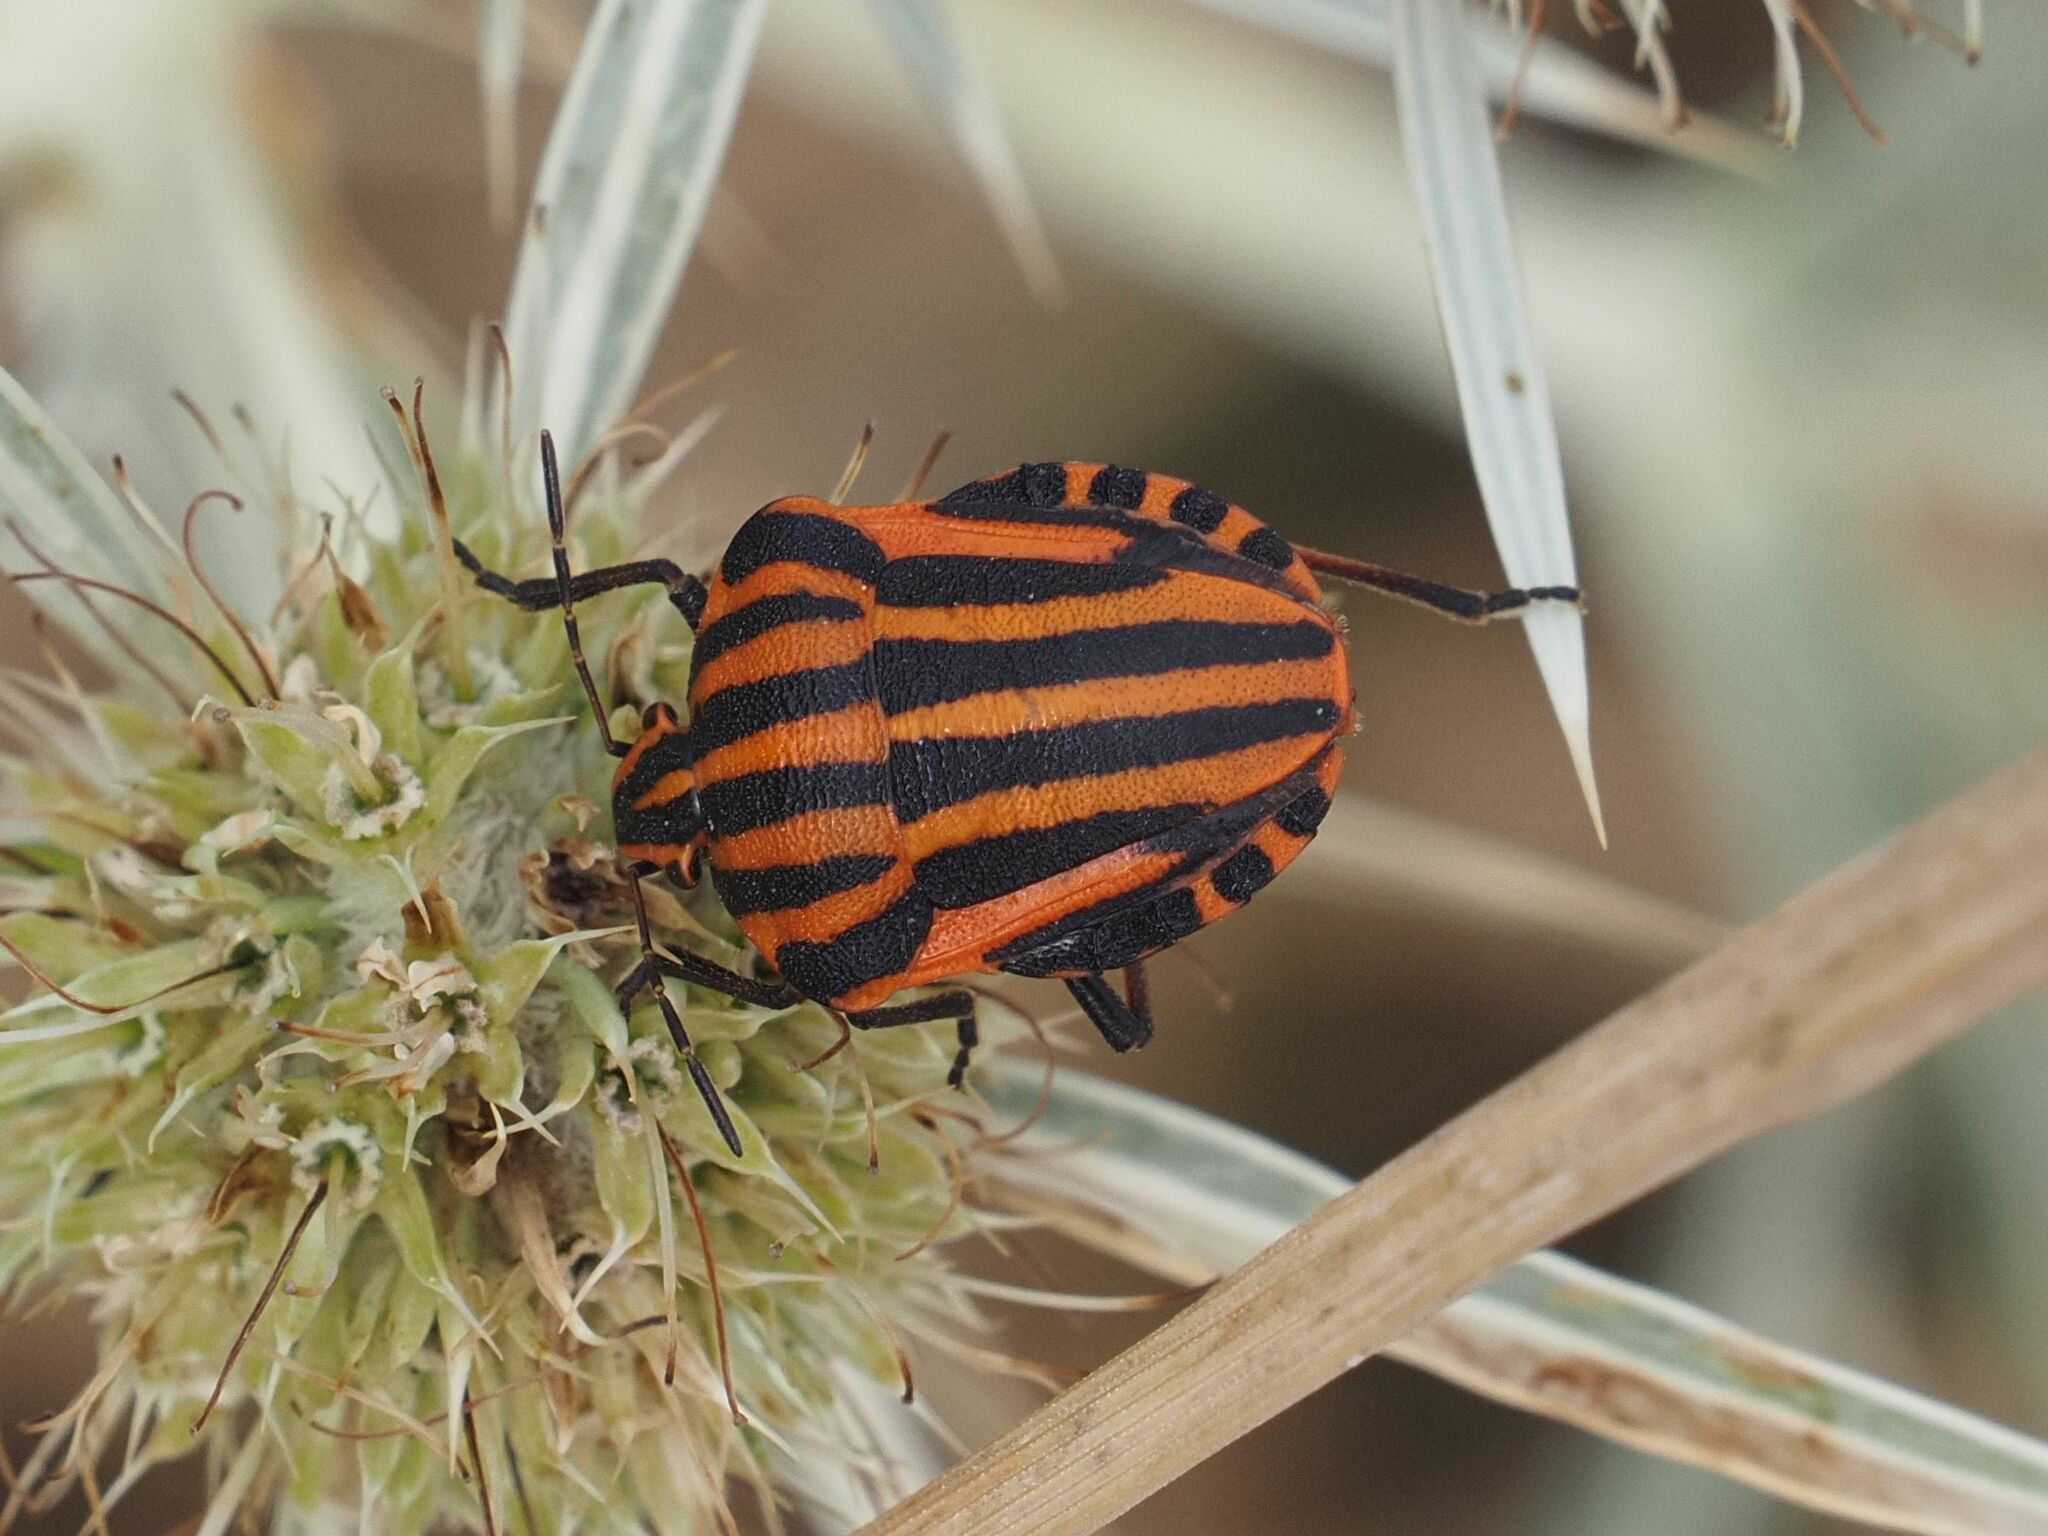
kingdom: Animalia
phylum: Arthropoda
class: Insecta
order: Hemiptera
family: Pentatomidae
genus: Graphosoma
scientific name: Graphosoma italicum
